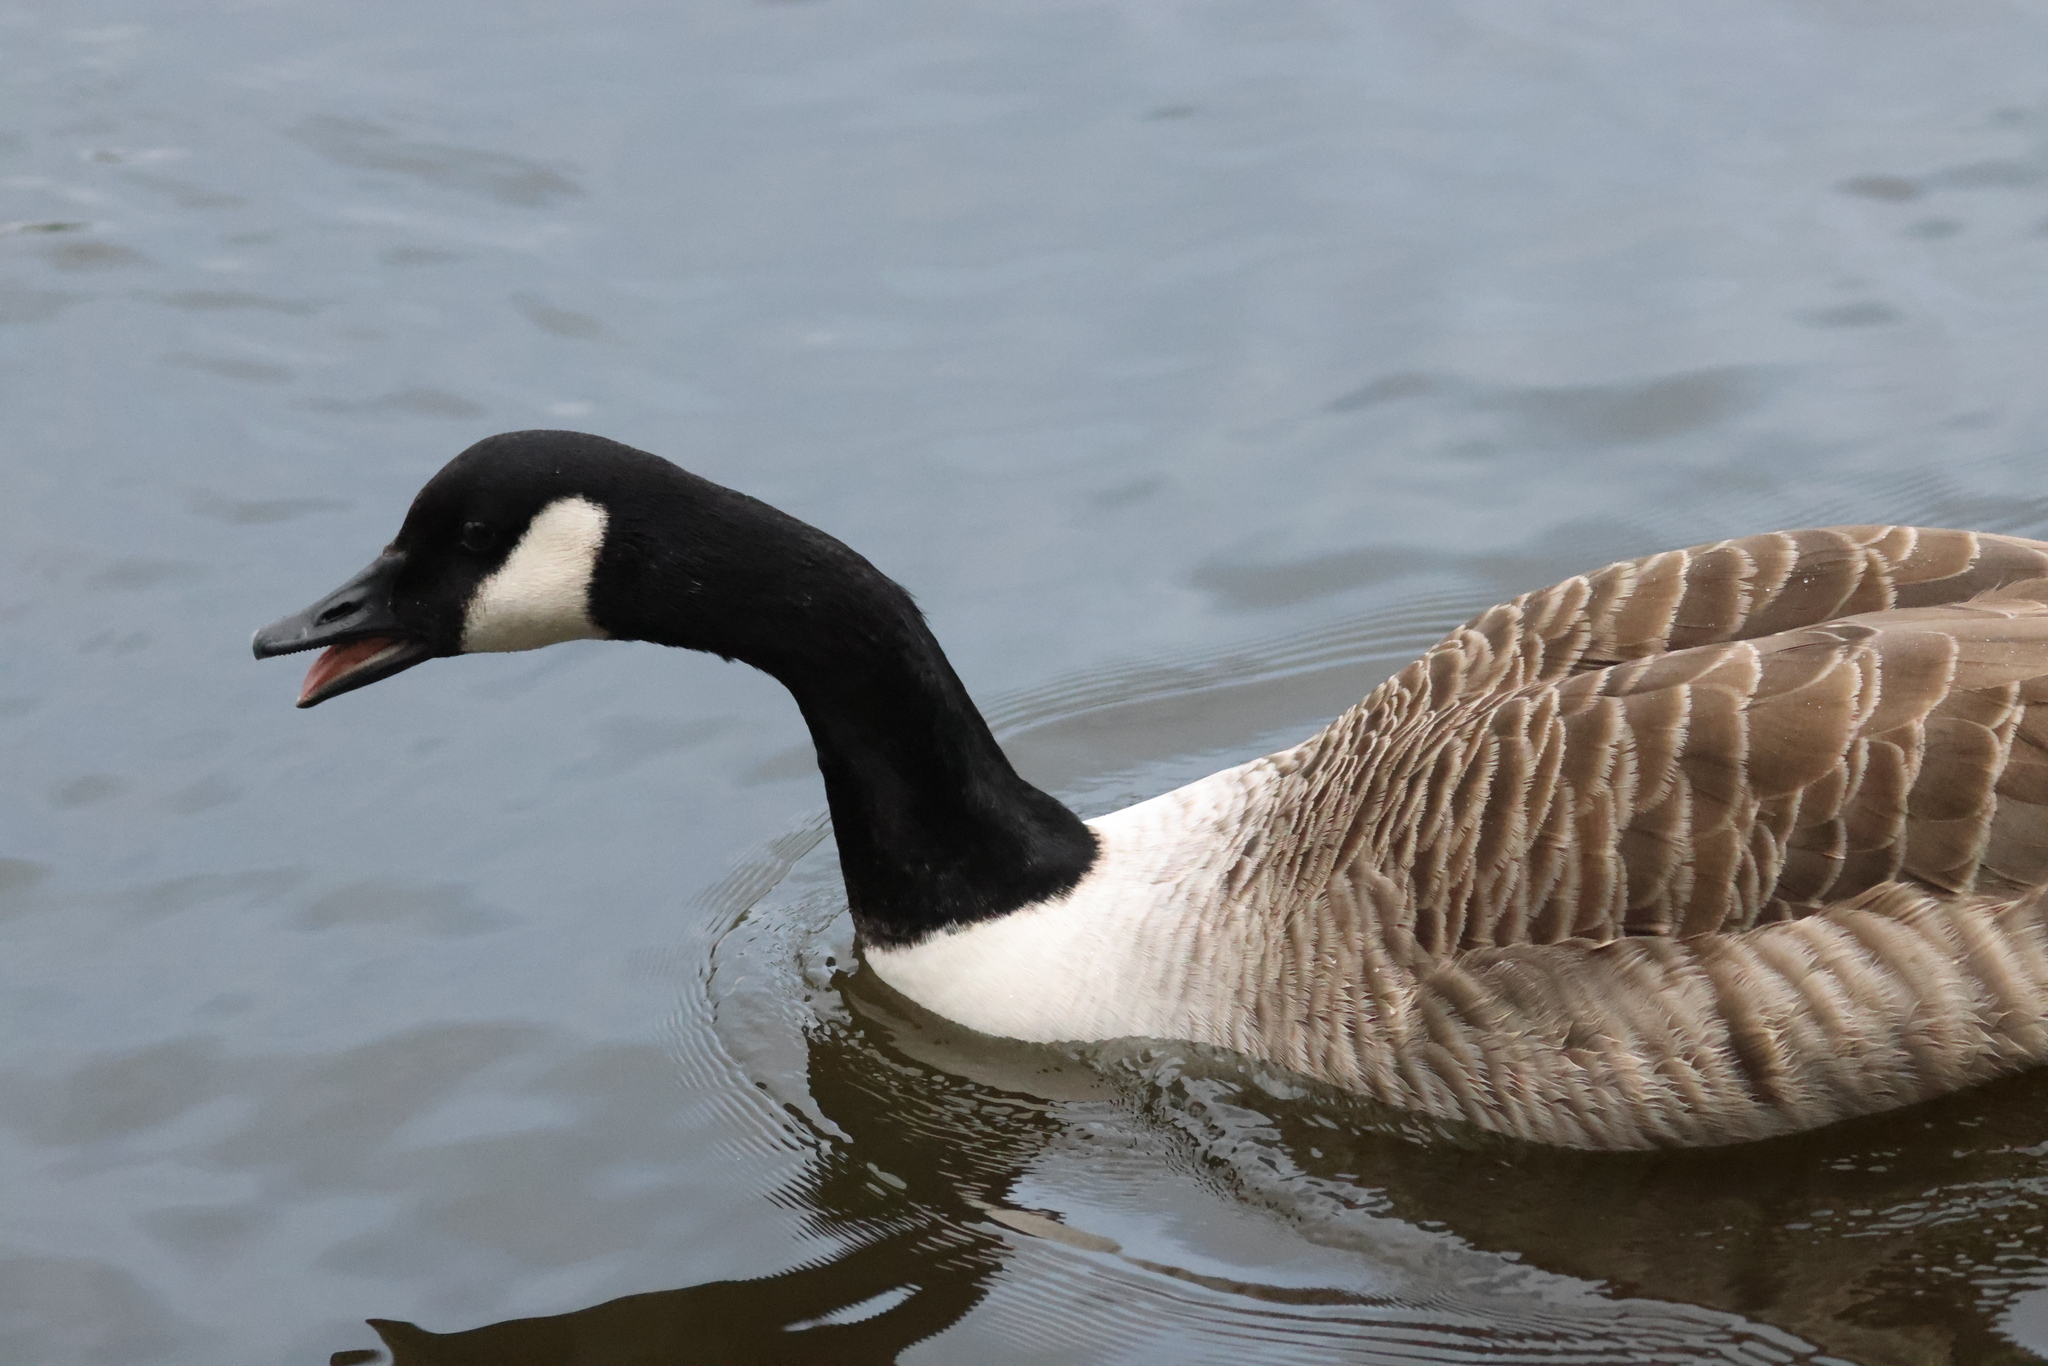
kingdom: Animalia
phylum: Chordata
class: Aves
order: Anseriformes
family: Anatidae
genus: Branta
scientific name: Branta canadensis
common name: Canada goose
